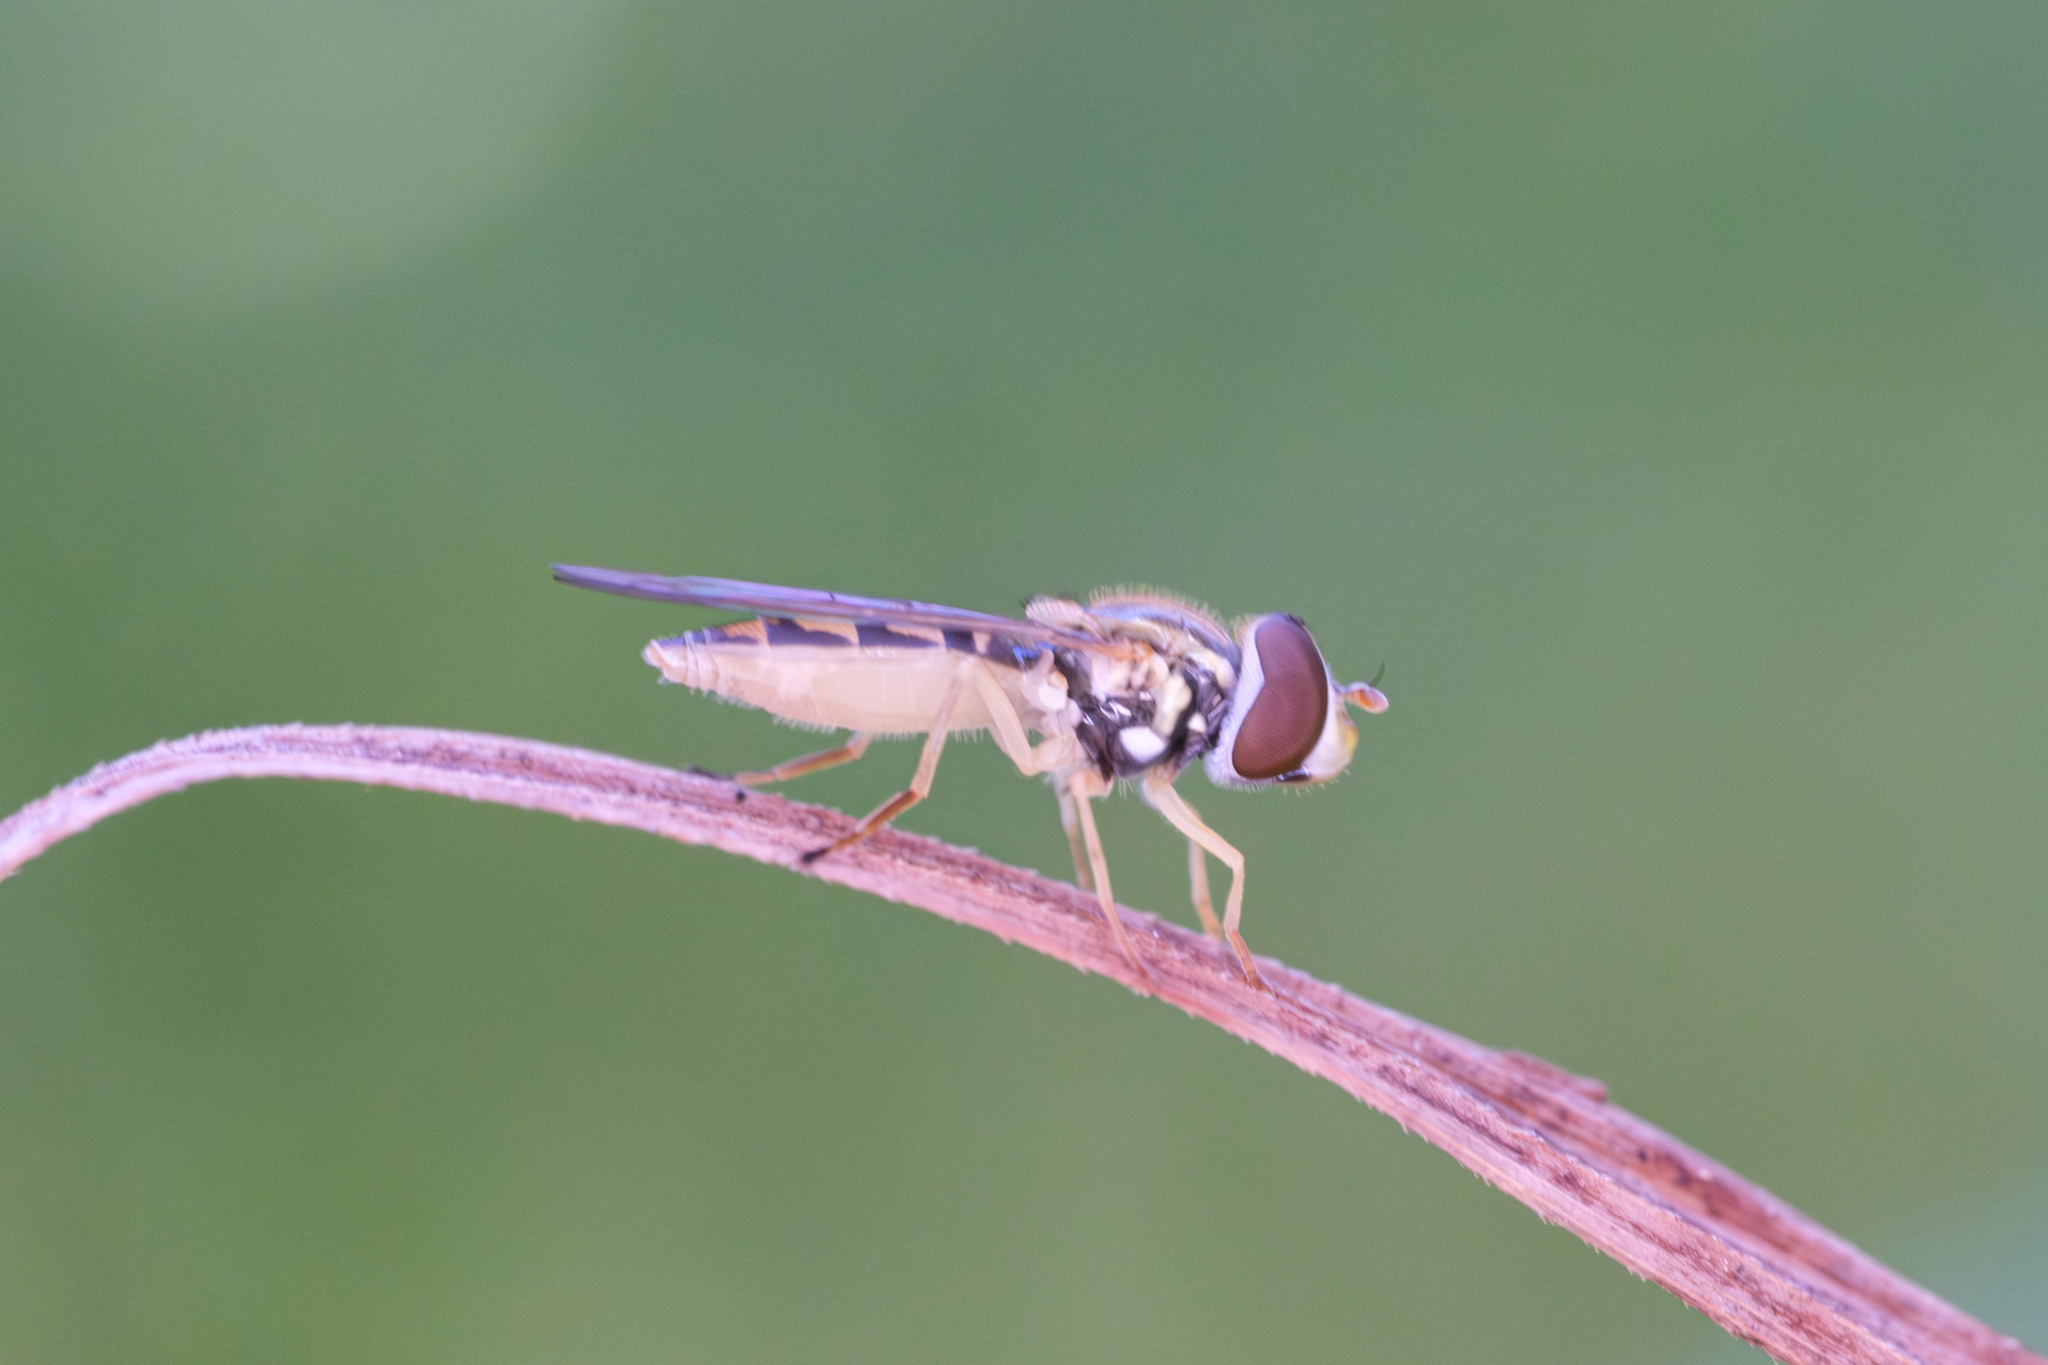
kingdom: Animalia
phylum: Arthropoda
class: Insecta
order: Diptera
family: Syrphidae
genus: Toxomerus
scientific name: Toxomerus marginatus
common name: Syrphid fly
